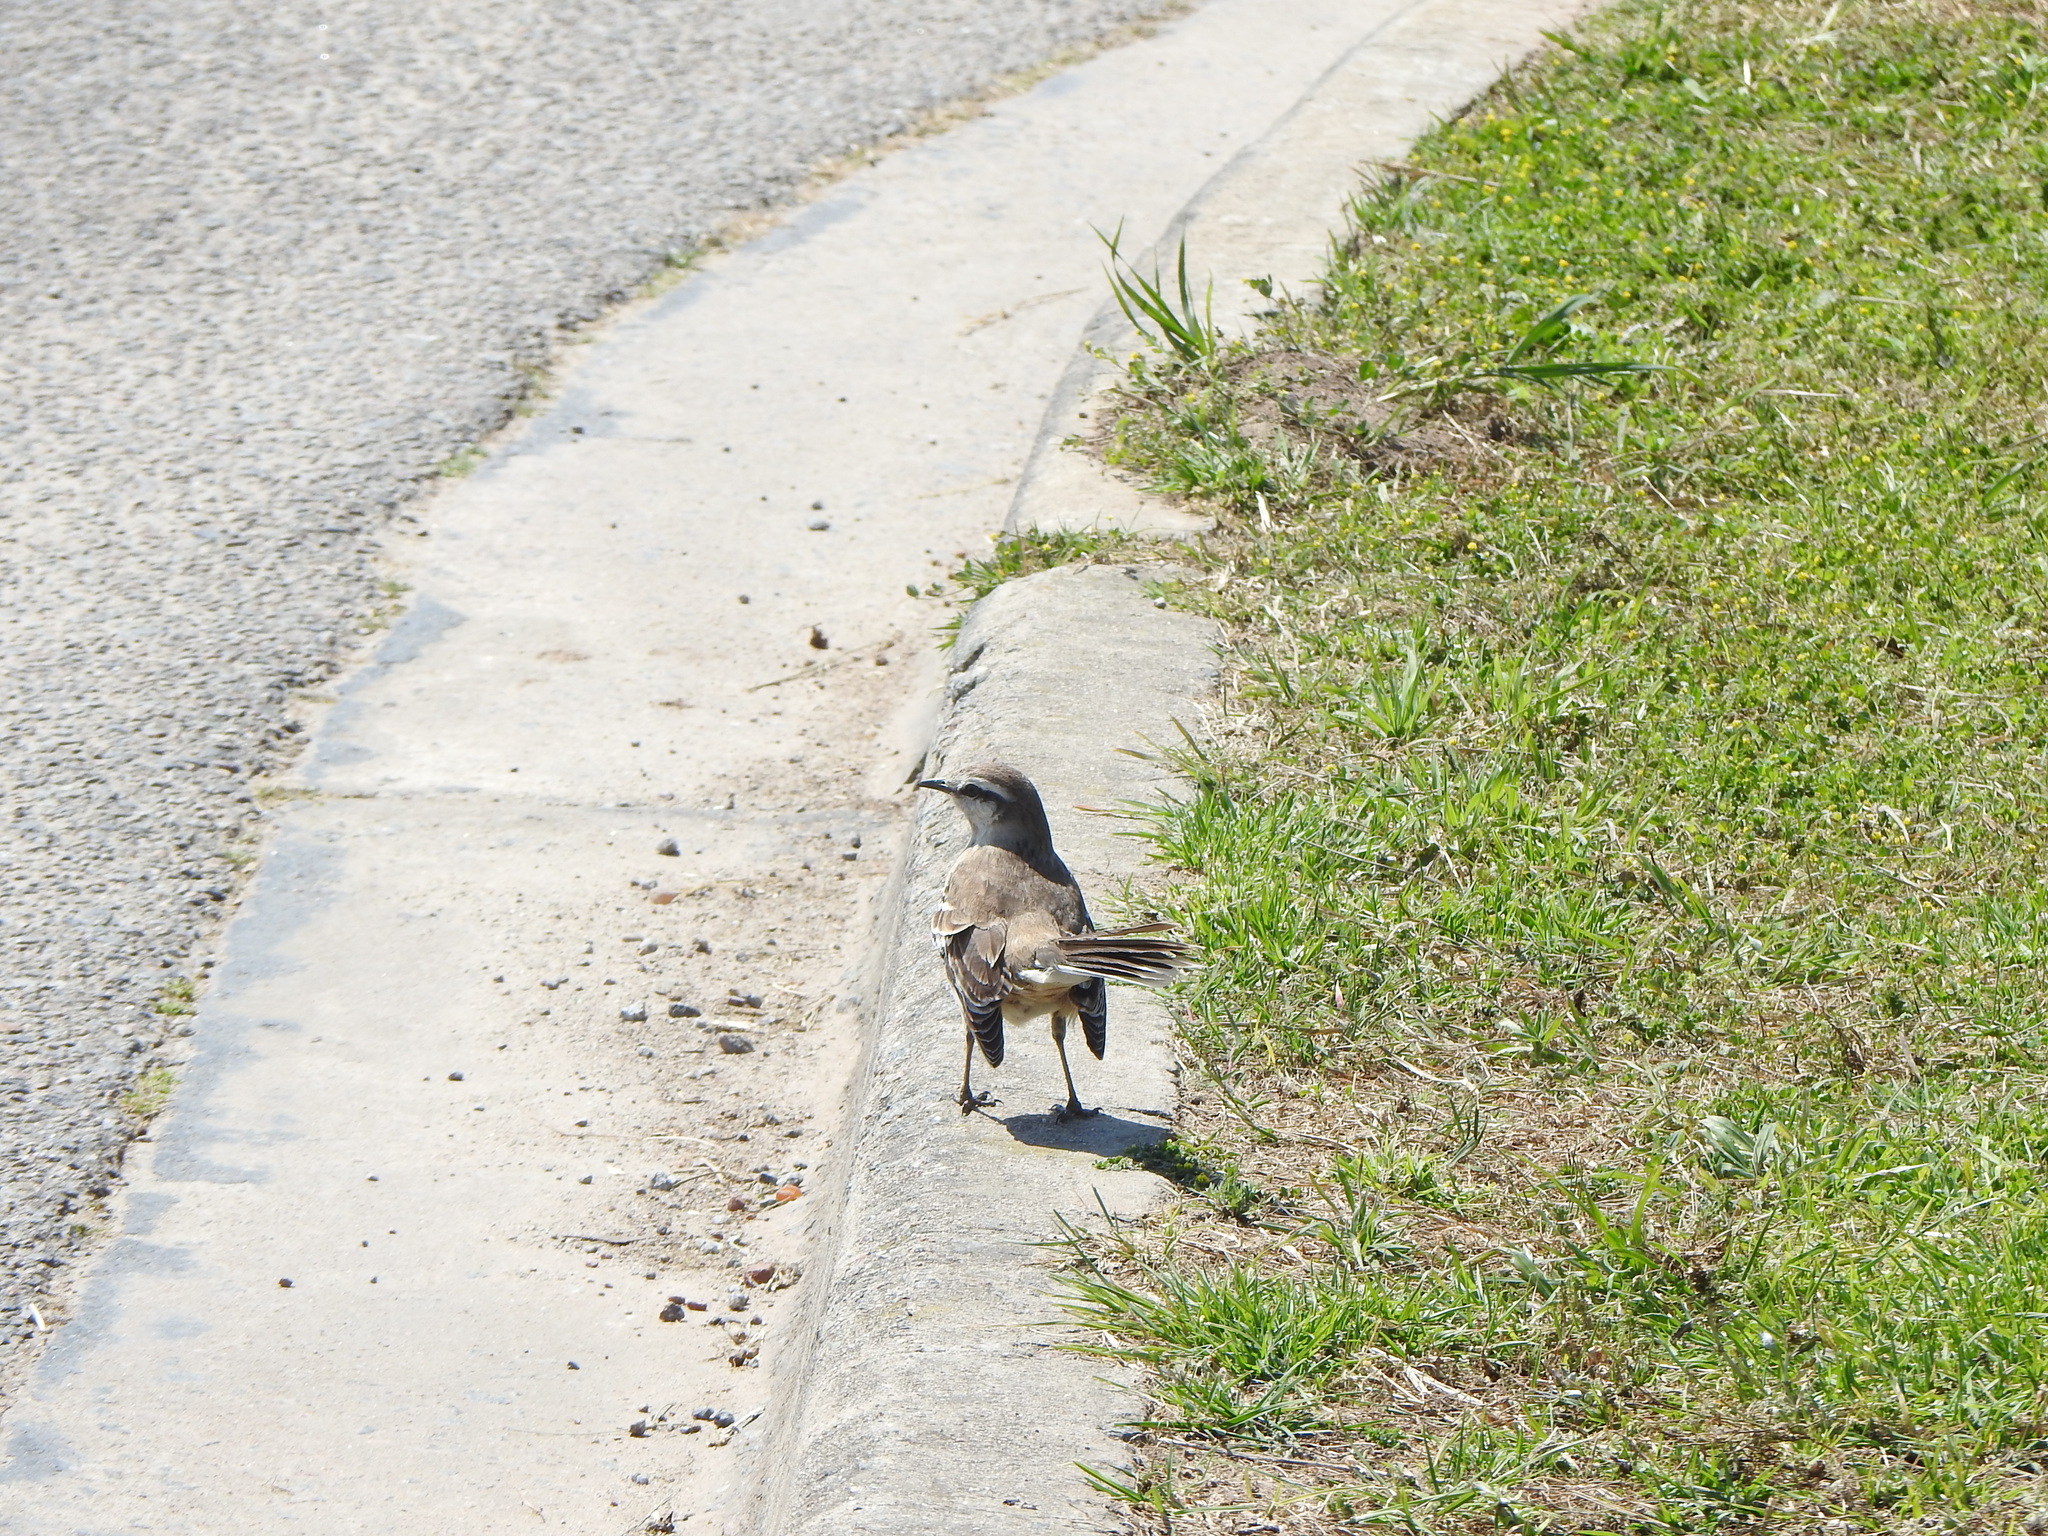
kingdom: Animalia
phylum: Chordata
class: Aves
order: Passeriformes
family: Mimidae
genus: Mimus
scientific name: Mimus saturninus
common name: Chalk-browed mockingbird
